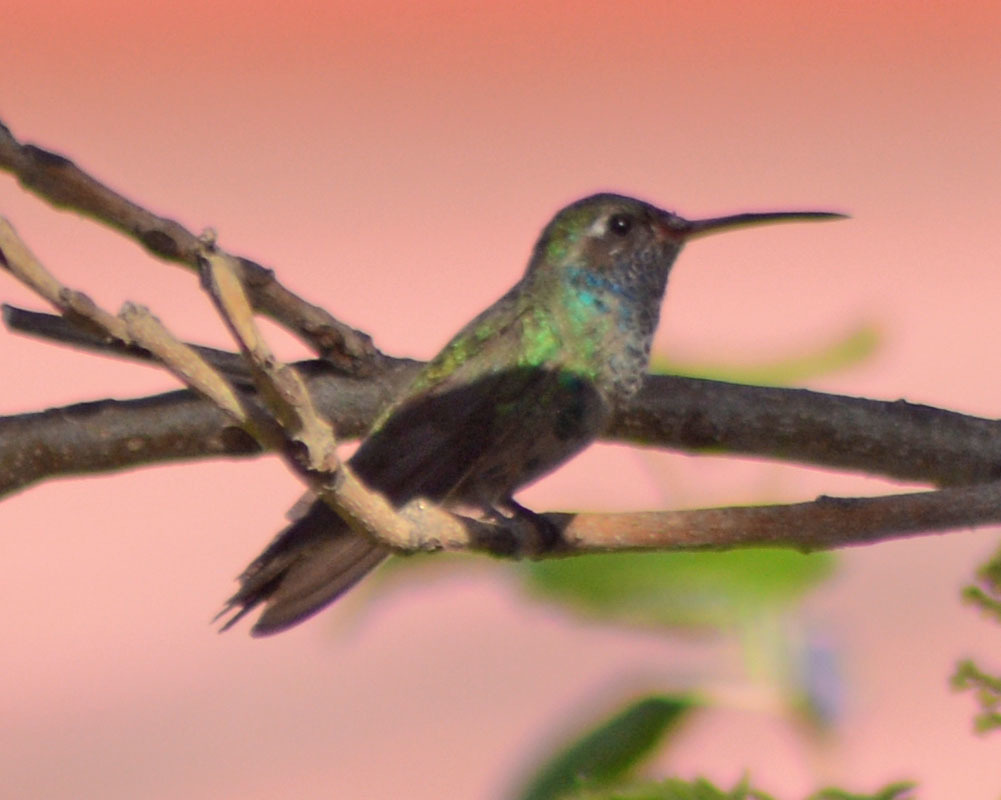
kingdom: Animalia
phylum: Chordata
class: Aves
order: Apodiformes
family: Trochilidae
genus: Cynanthus
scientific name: Cynanthus latirostris
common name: Broad-billed hummingbird
